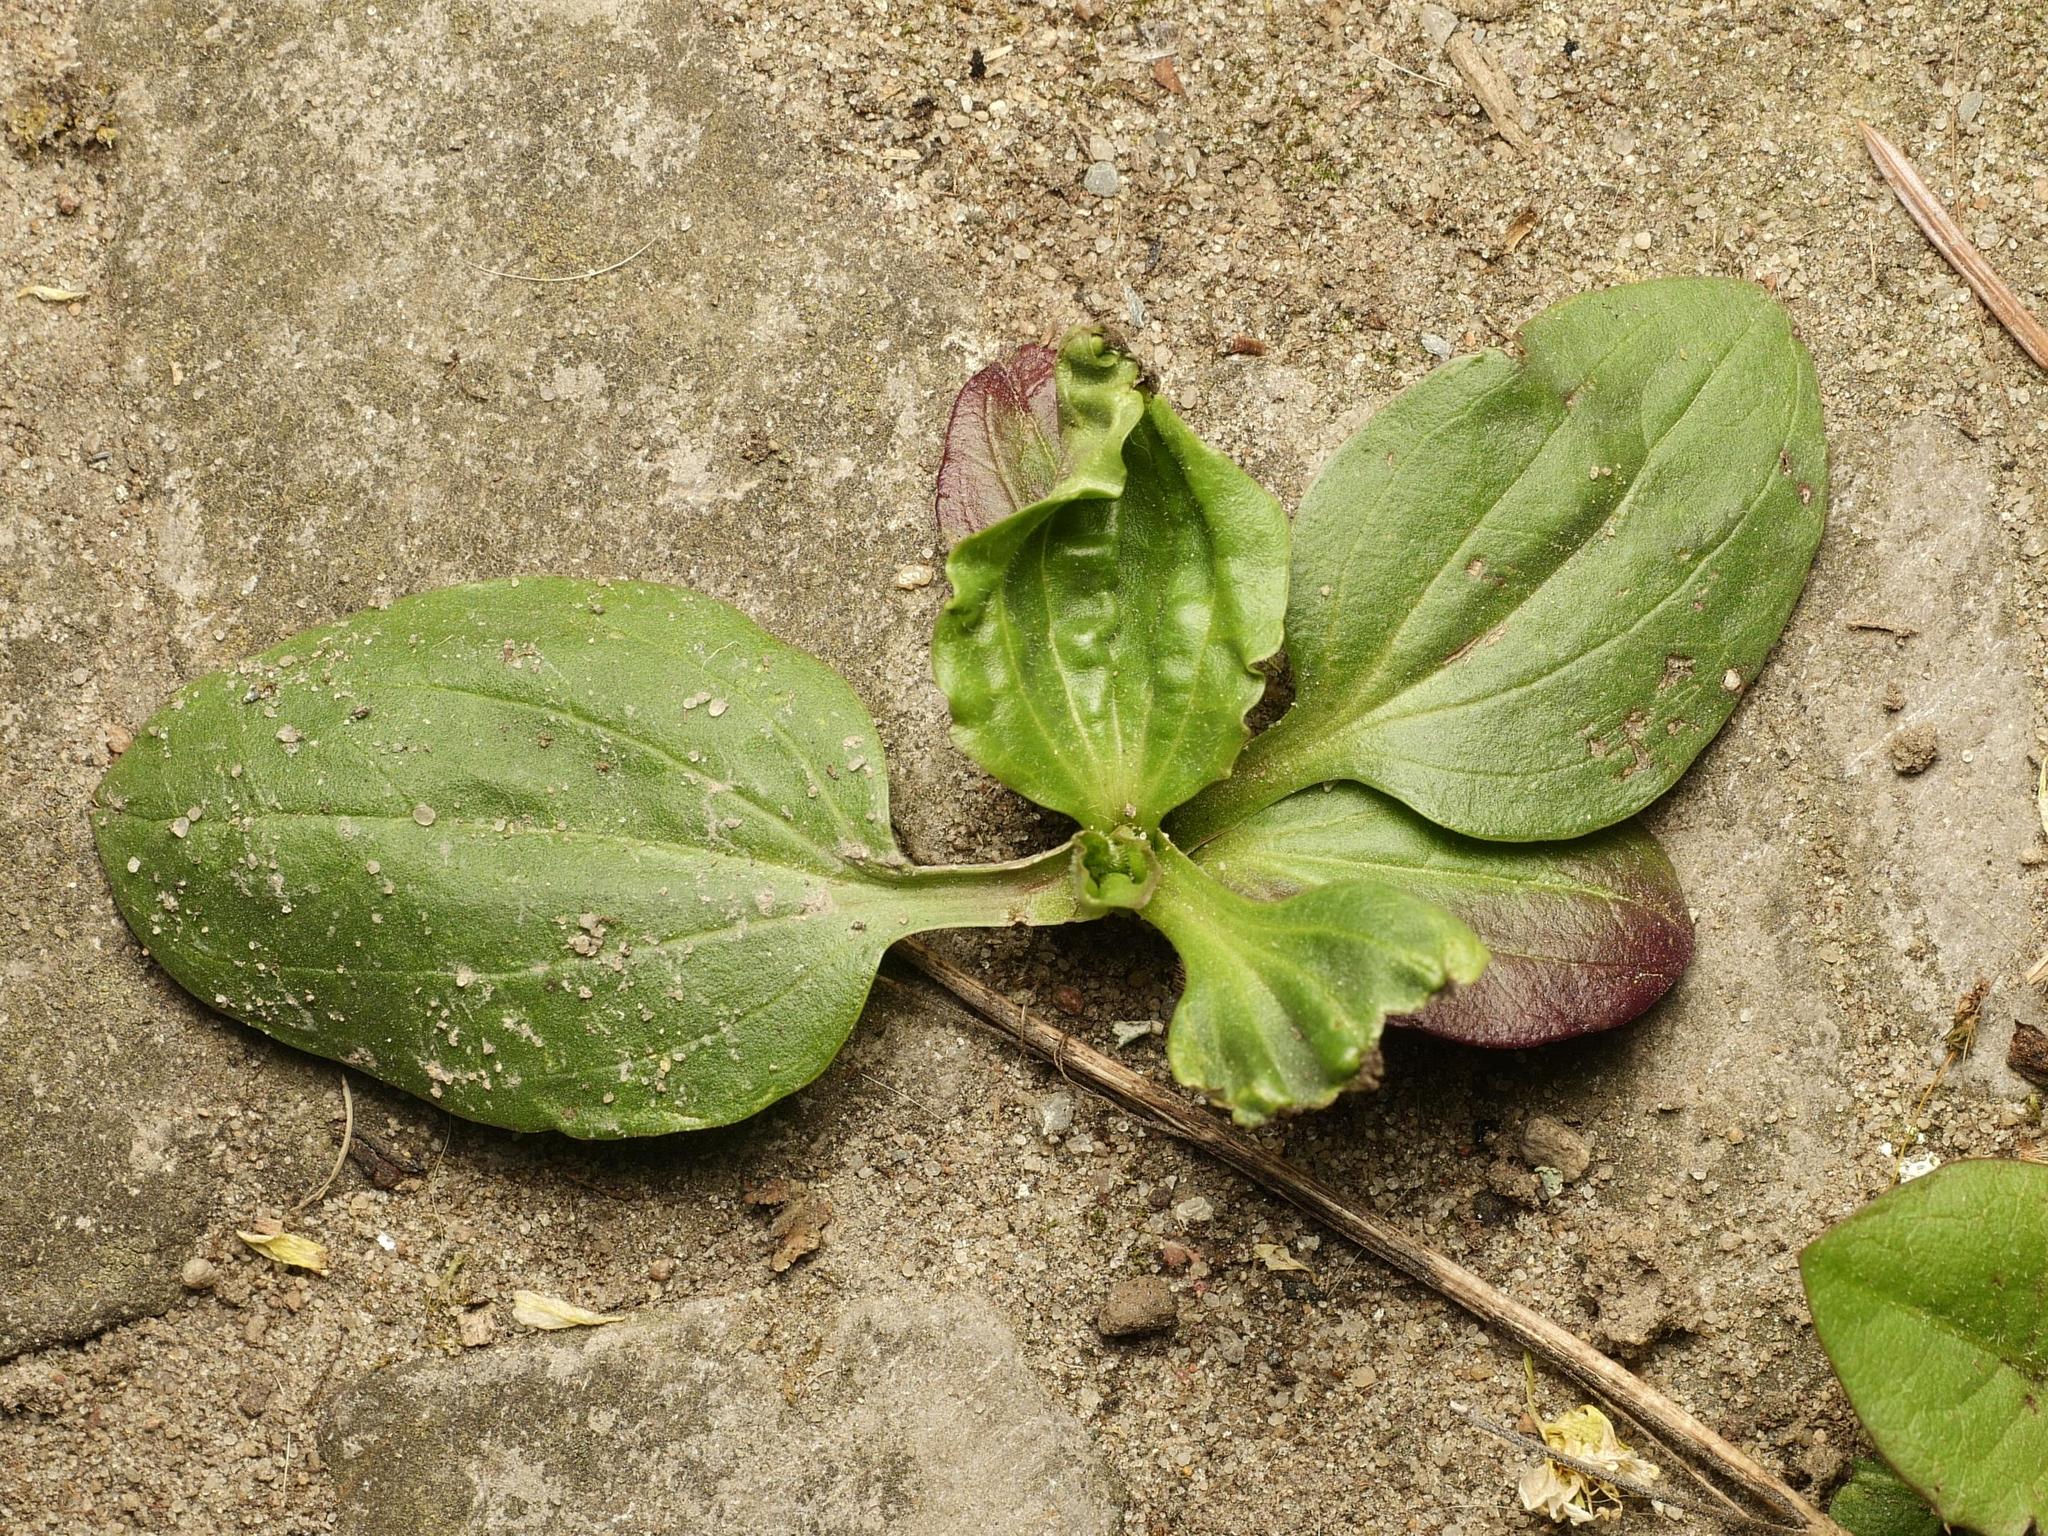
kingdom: Plantae
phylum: Tracheophyta
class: Magnoliopsida
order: Lamiales
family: Plantaginaceae
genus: Plantago
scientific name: Plantago major
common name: Common plantain
